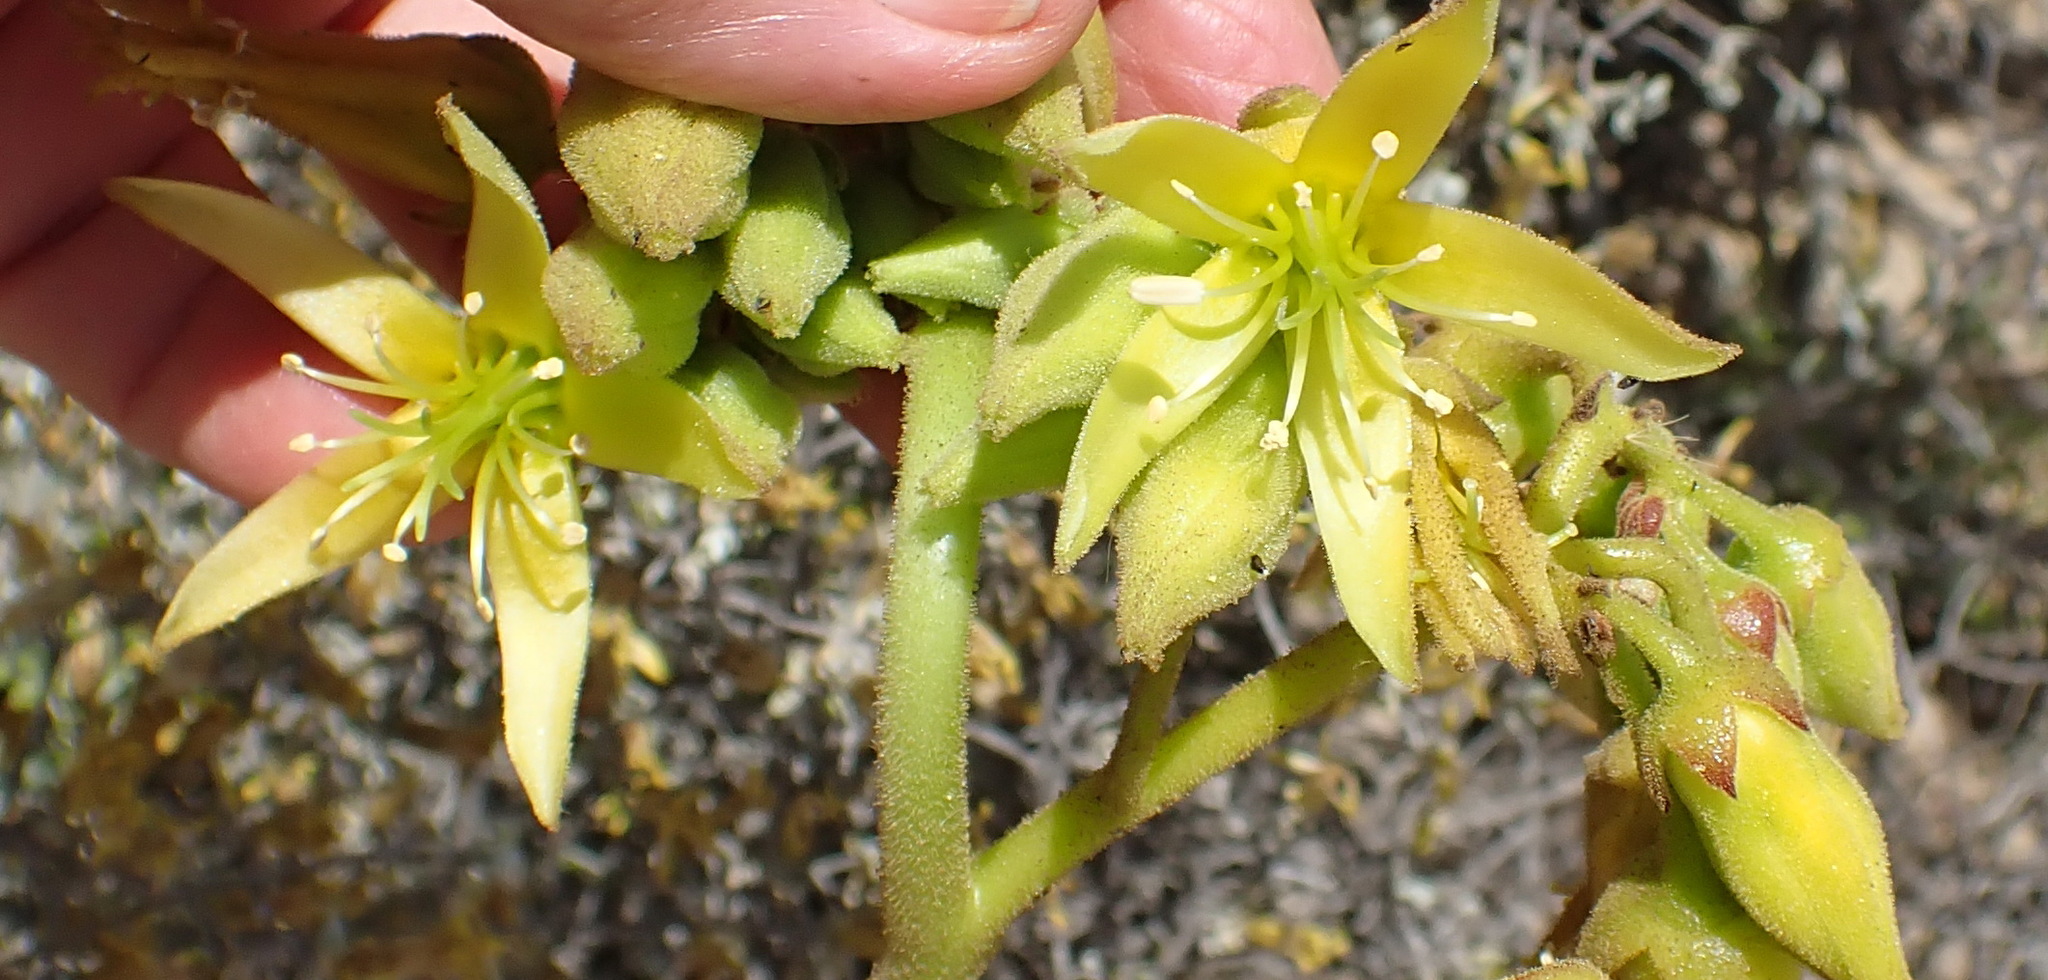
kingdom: Plantae
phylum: Tracheophyta
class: Magnoliopsida
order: Saxifragales
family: Crassulaceae
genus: Cotyledon
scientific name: Cotyledon cuneata
